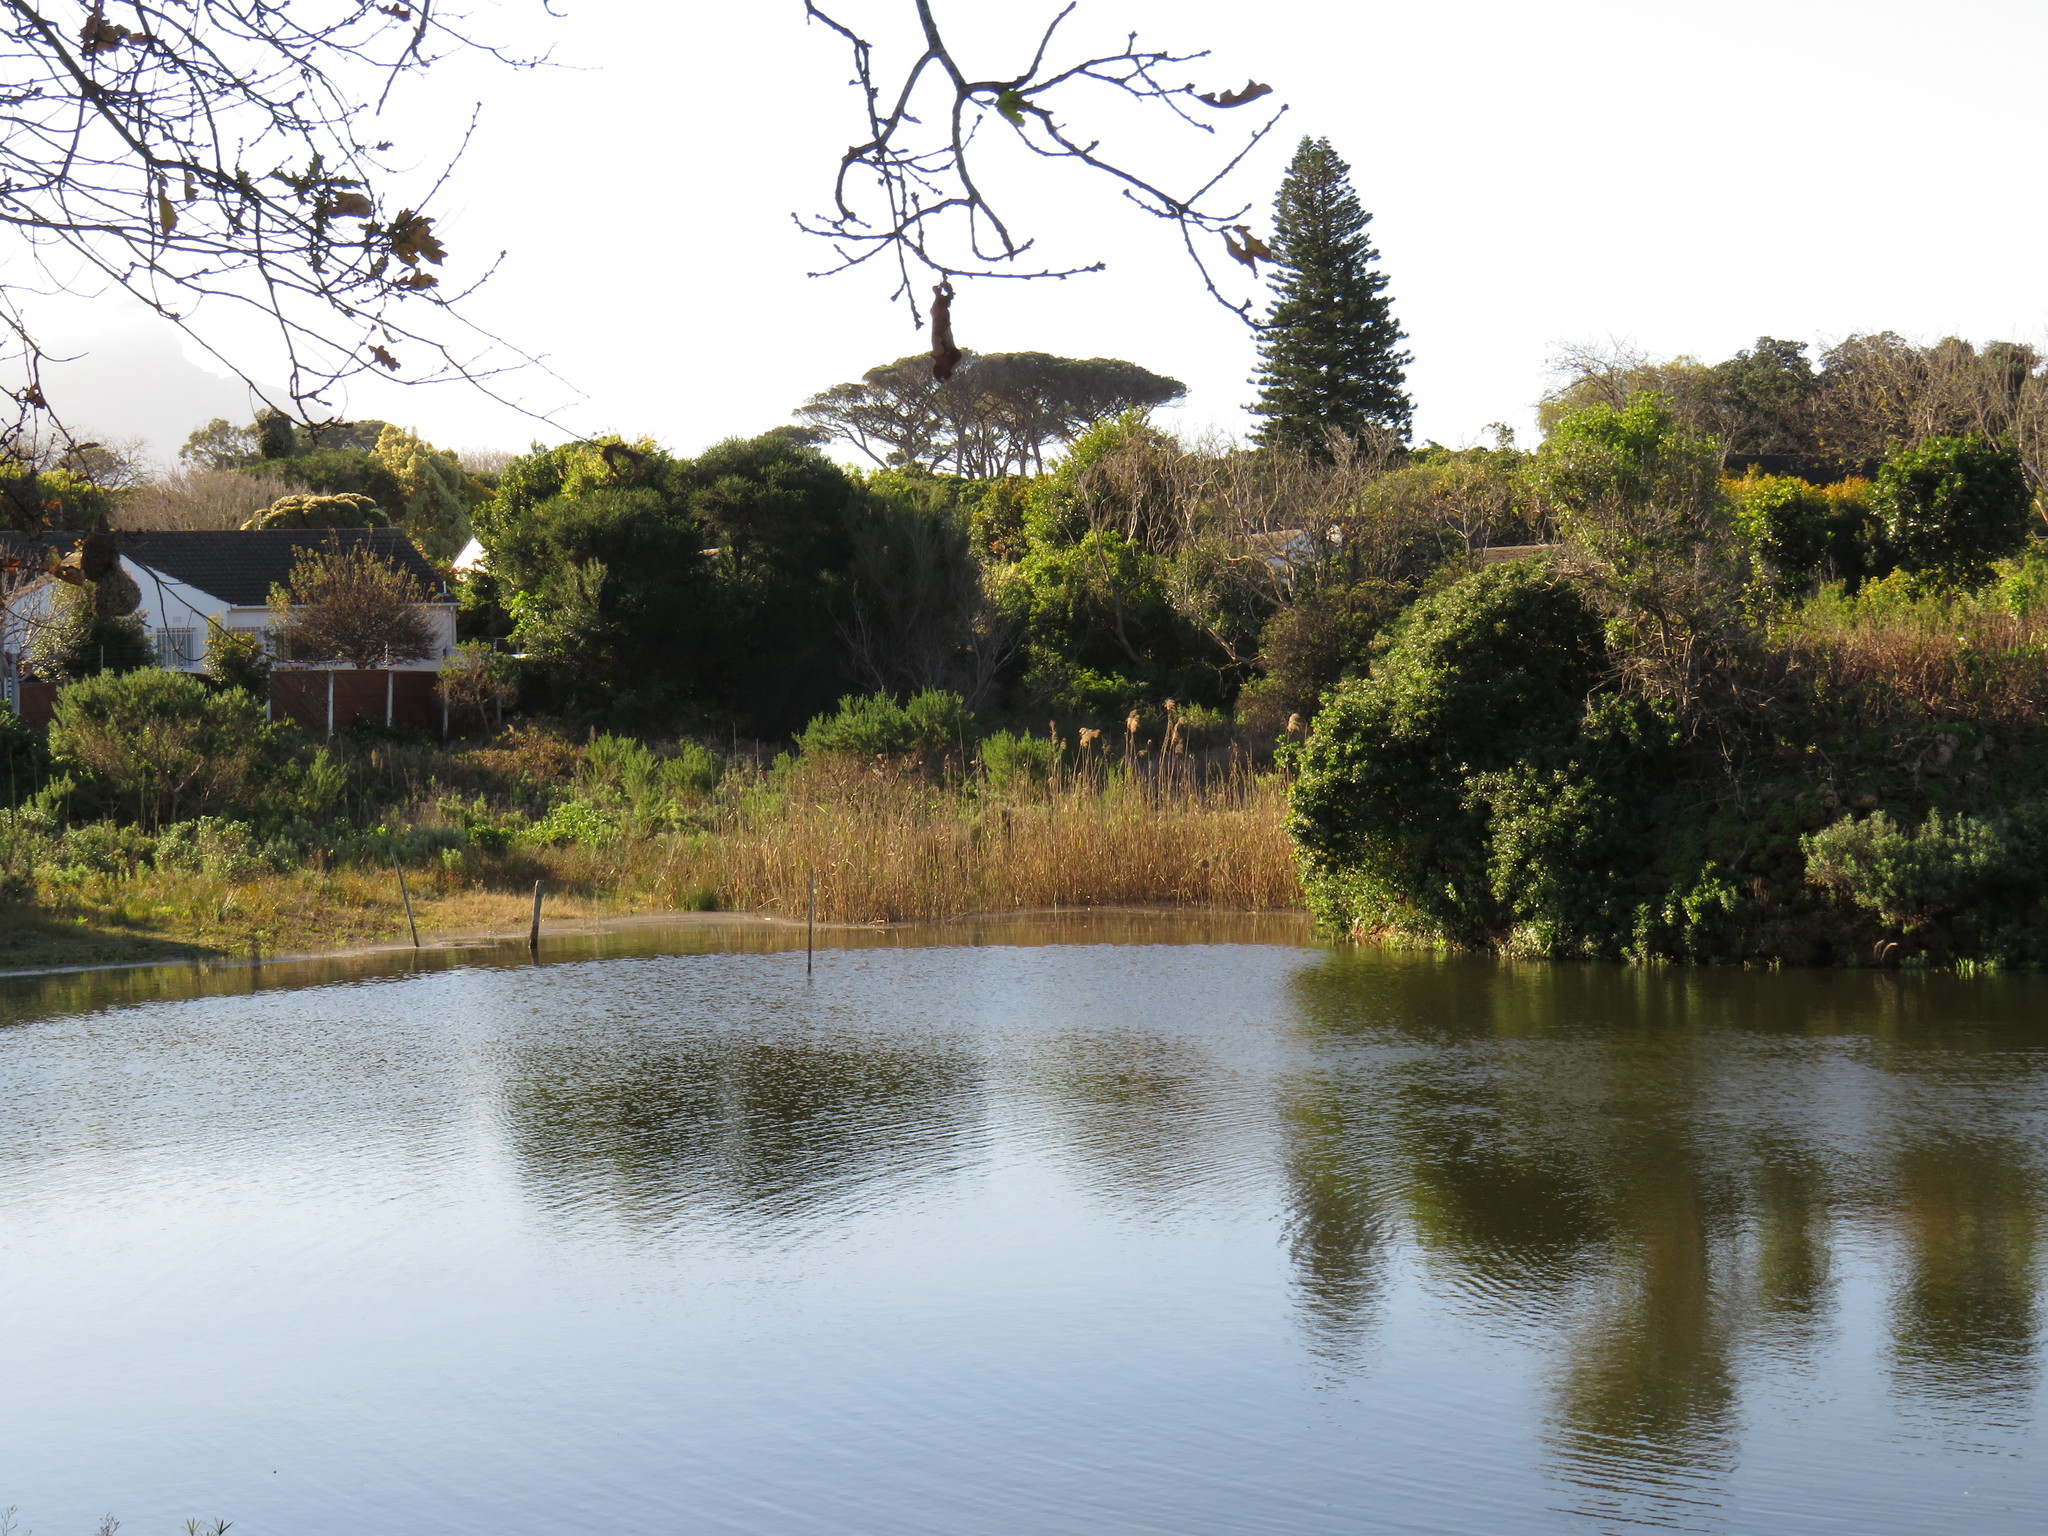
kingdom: Plantae
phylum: Tracheophyta
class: Liliopsida
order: Poales
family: Poaceae
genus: Phragmites
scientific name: Phragmites australis
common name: Common reed
